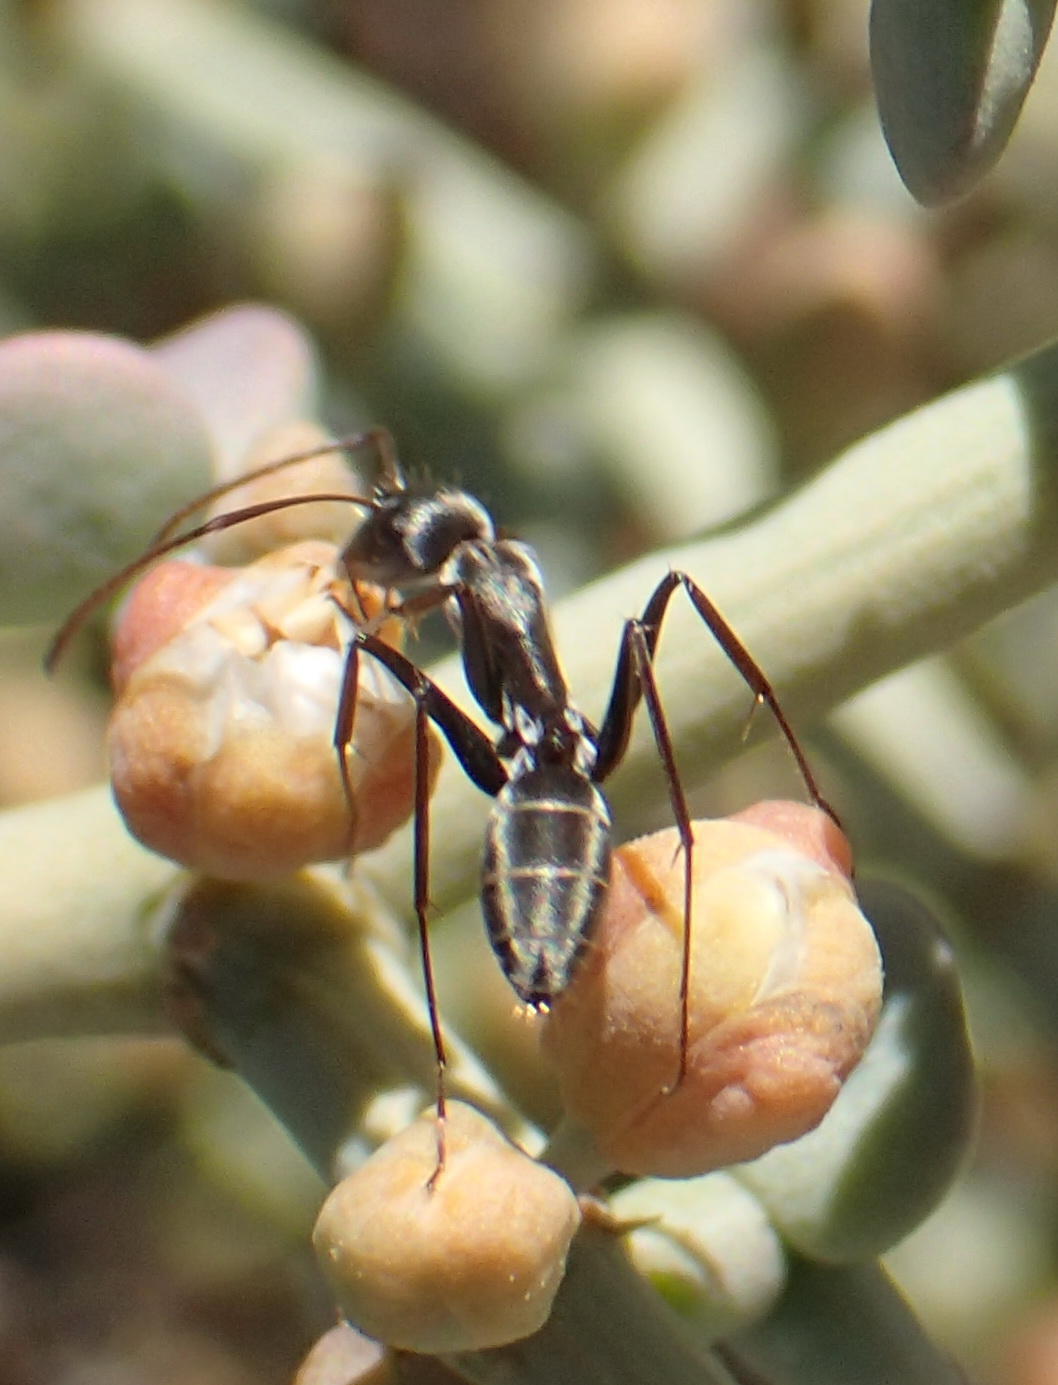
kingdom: Animalia
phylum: Arthropoda
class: Insecta
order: Hymenoptera
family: Formicidae
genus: Camponotus
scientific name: Camponotus vestitus
